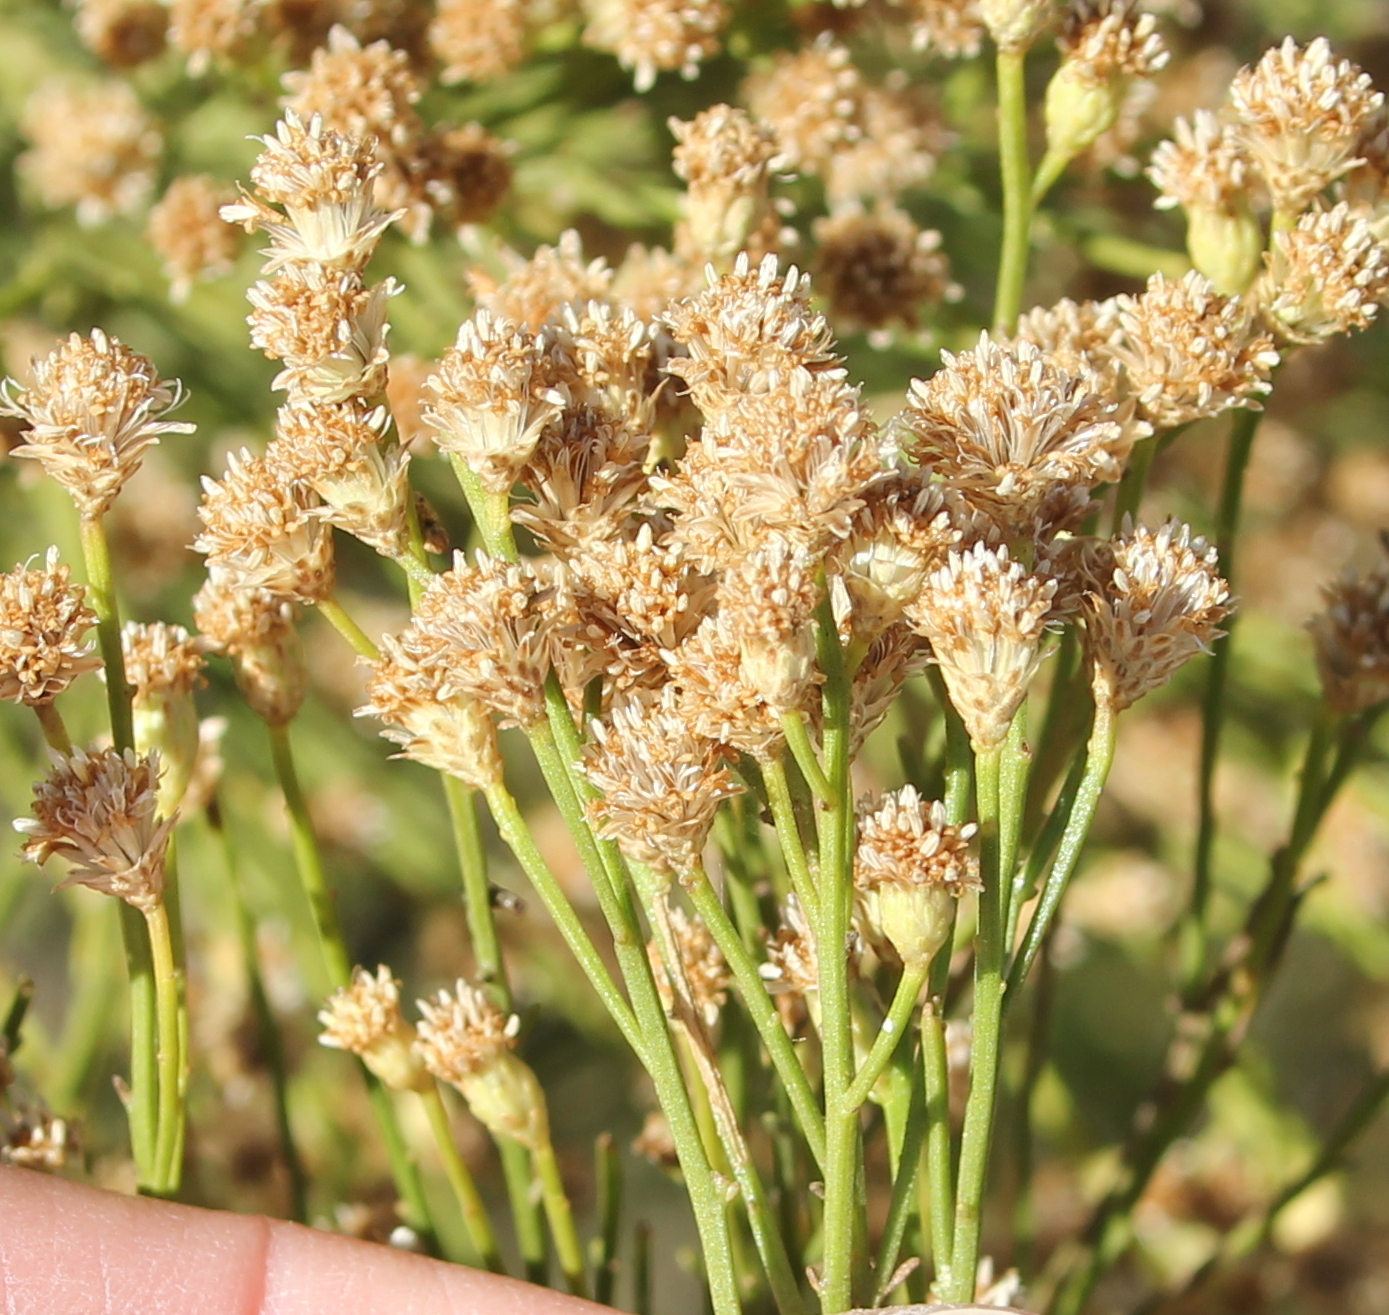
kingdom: Plantae
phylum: Tracheophyta
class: Magnoliopsida
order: Asterales
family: Asteraceae
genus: Baccharis
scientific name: Baccharis sarothroides
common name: Desert-broom
